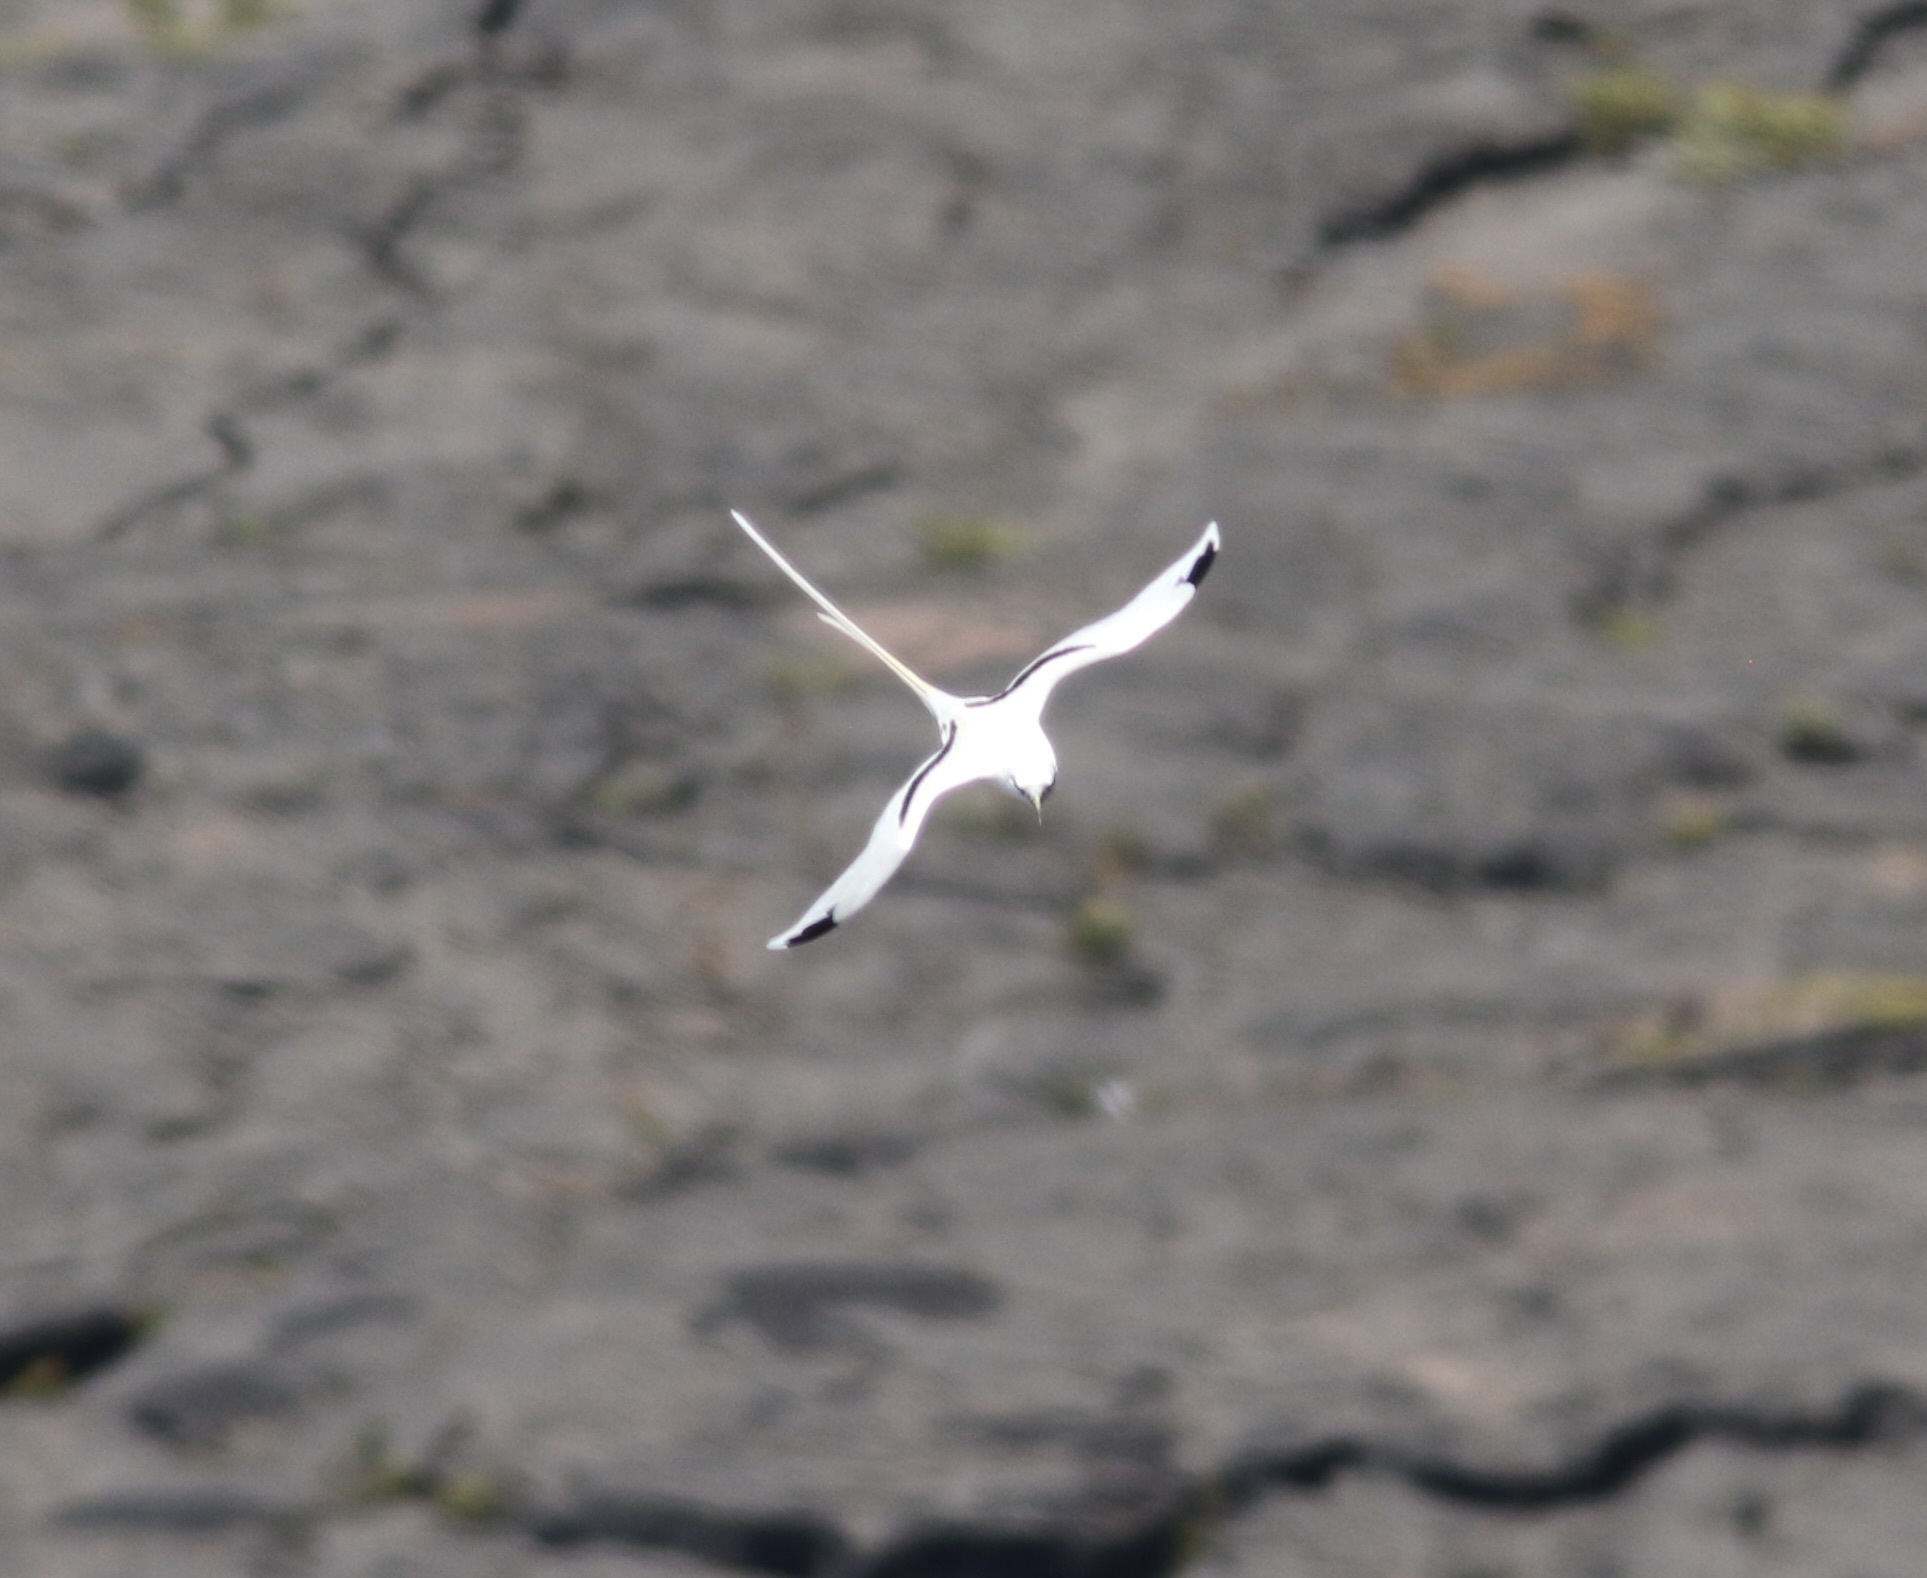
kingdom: Animalia
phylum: Chordata
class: Aves
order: Phaethontiformes
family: Phaethontidae
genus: Phaethon
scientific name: Phaethon lepturus
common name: White-tailed tropicbird
